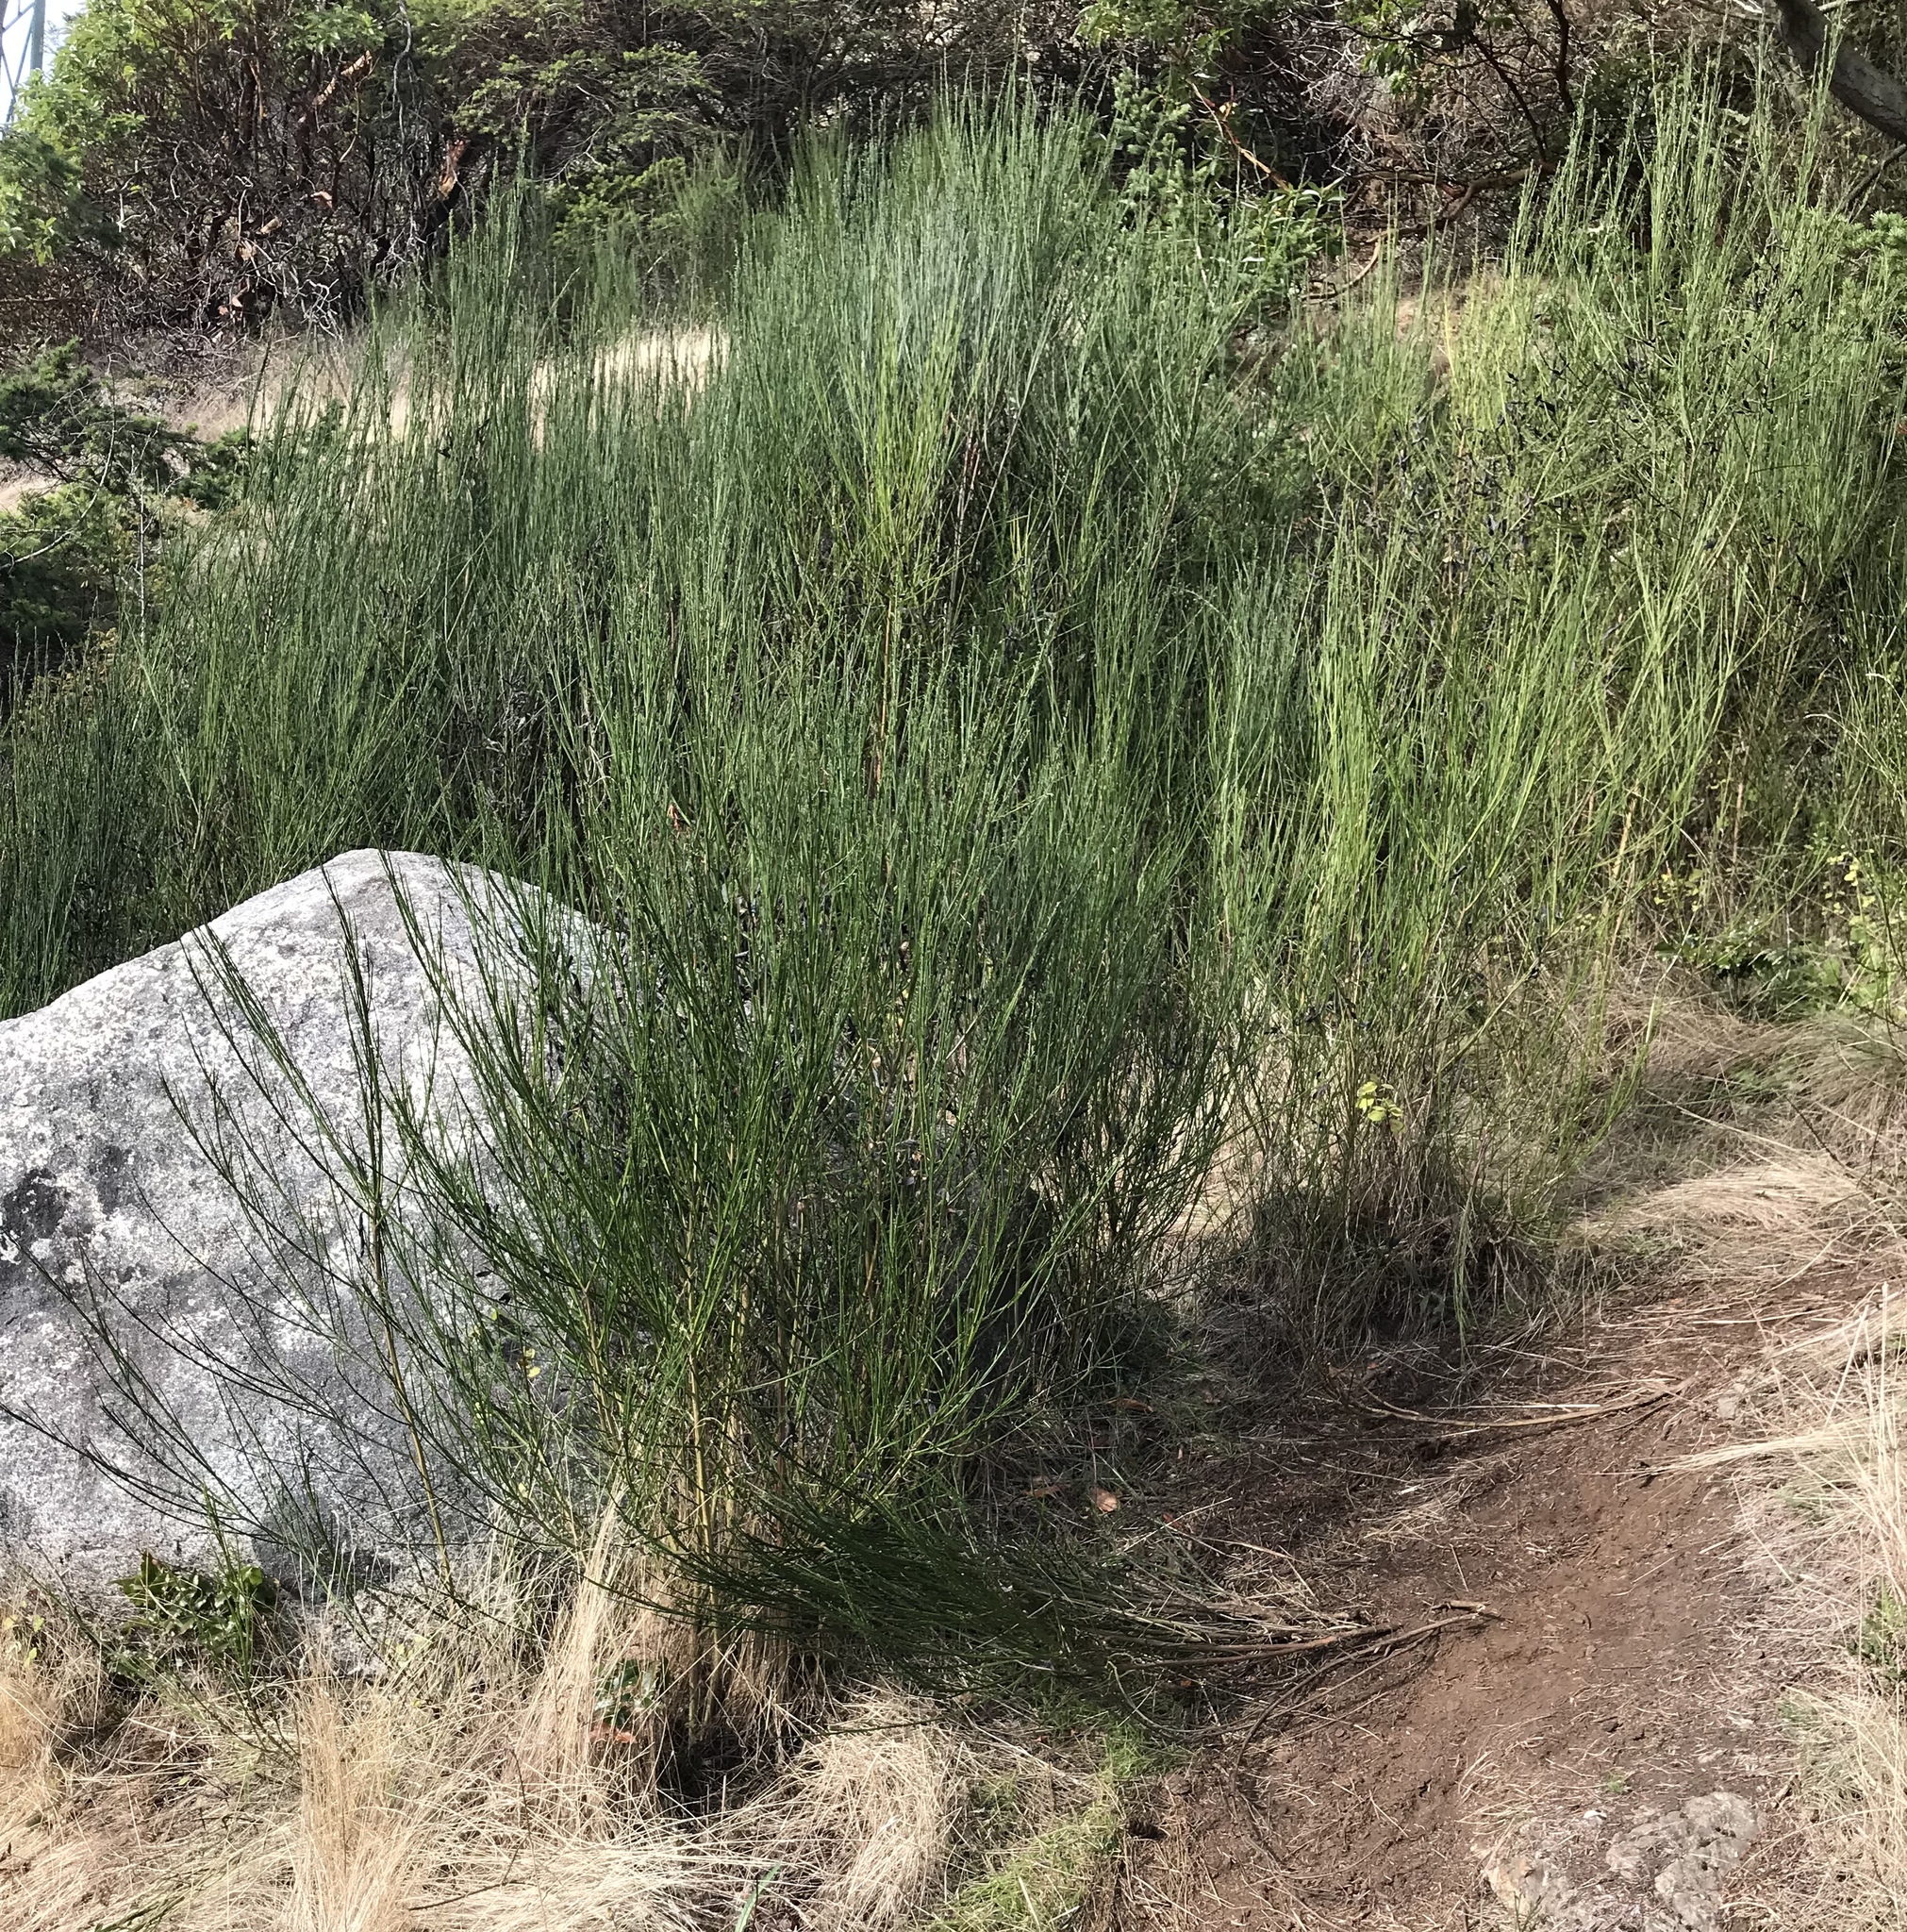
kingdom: Plantae
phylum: Tracheophyta
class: Magnoliopsida
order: Fabales
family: Fabaceae
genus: Cytisus
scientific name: Cytisus scoparius
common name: Scotch broom
